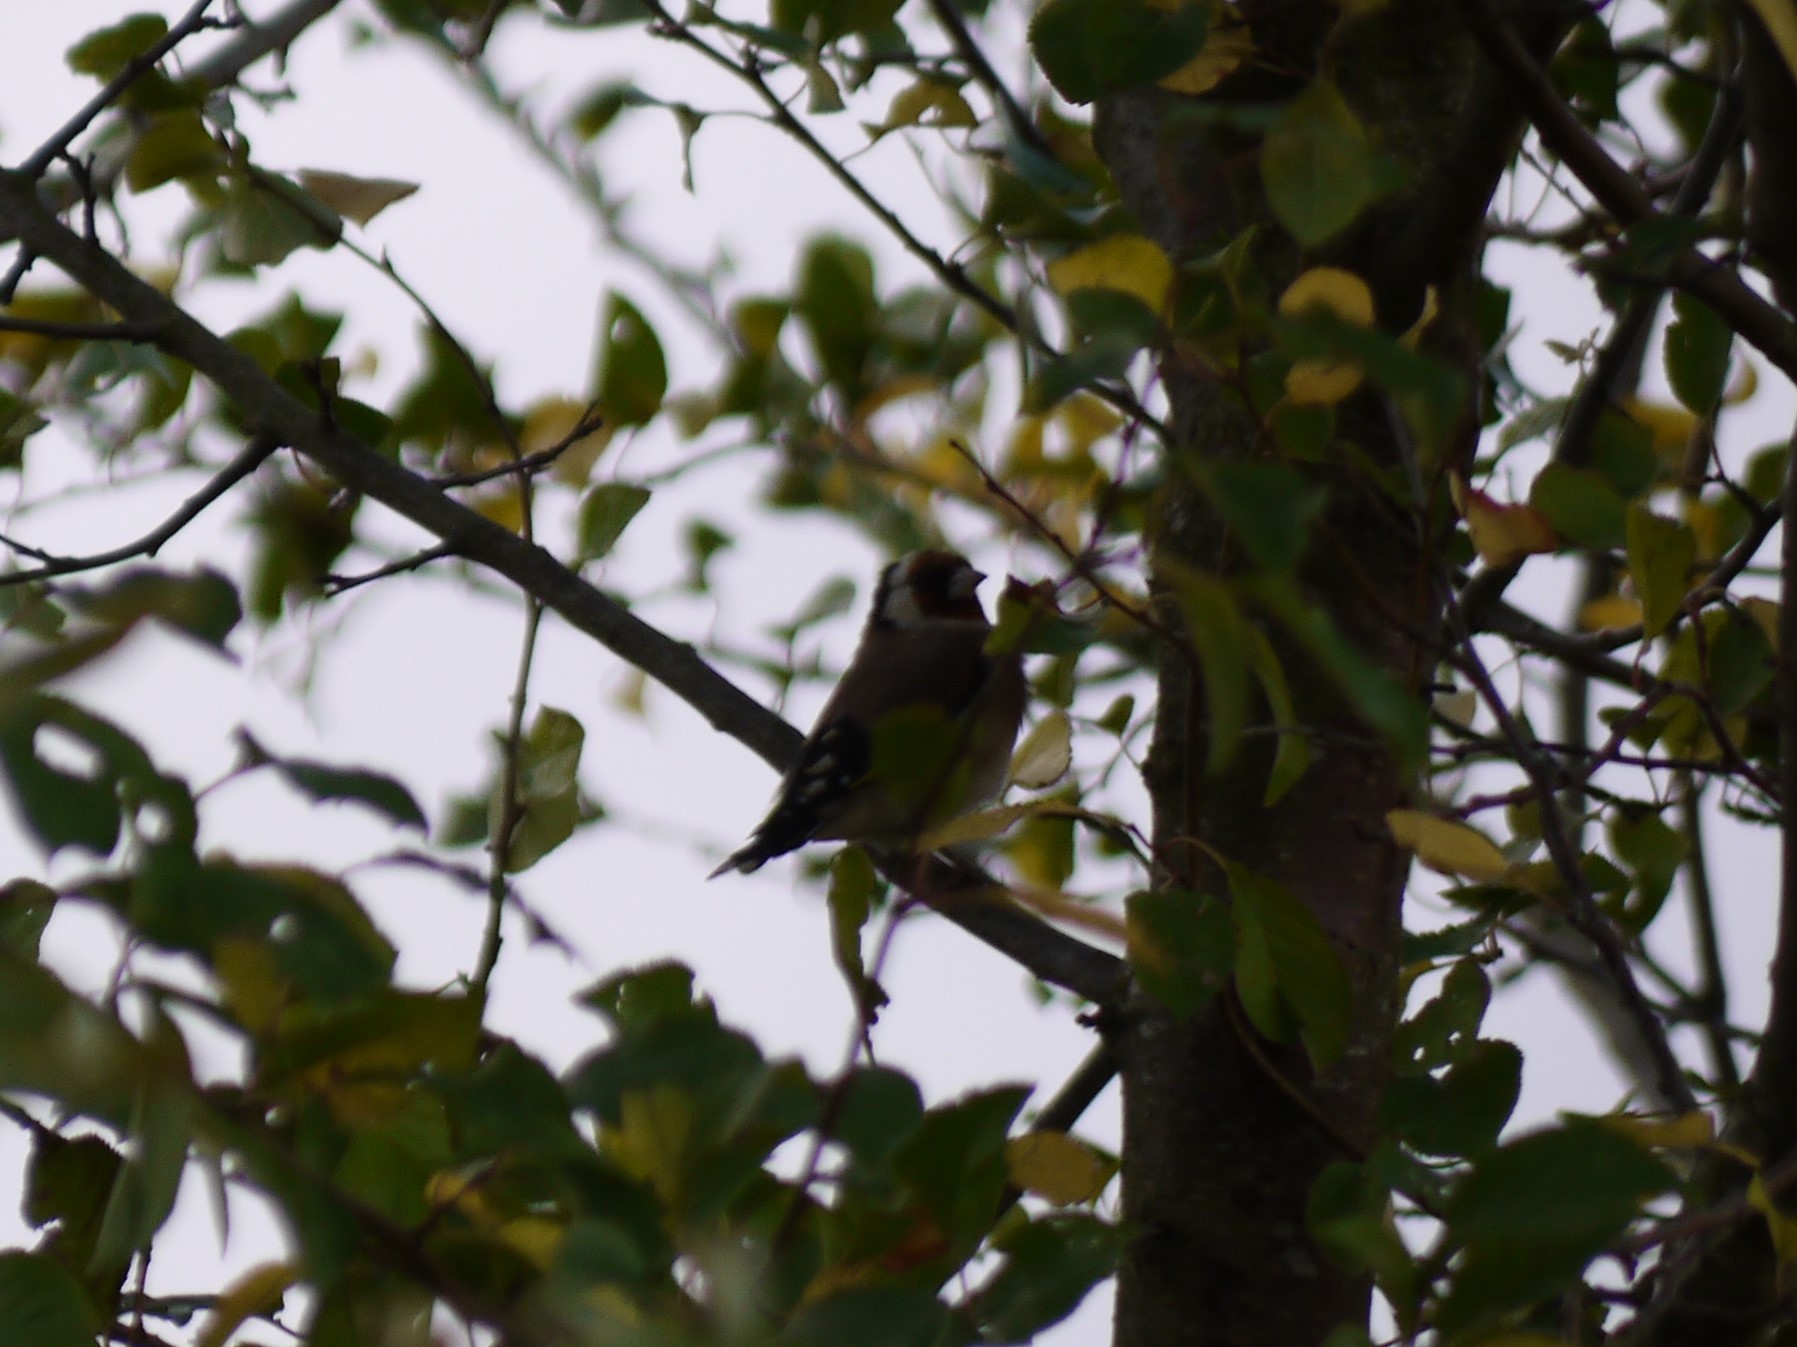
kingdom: Animalia
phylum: Chordata
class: Aves
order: Passeriformes
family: Fringillidae
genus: Carduelis
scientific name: Carduelis carduelis
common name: European goldfinch
